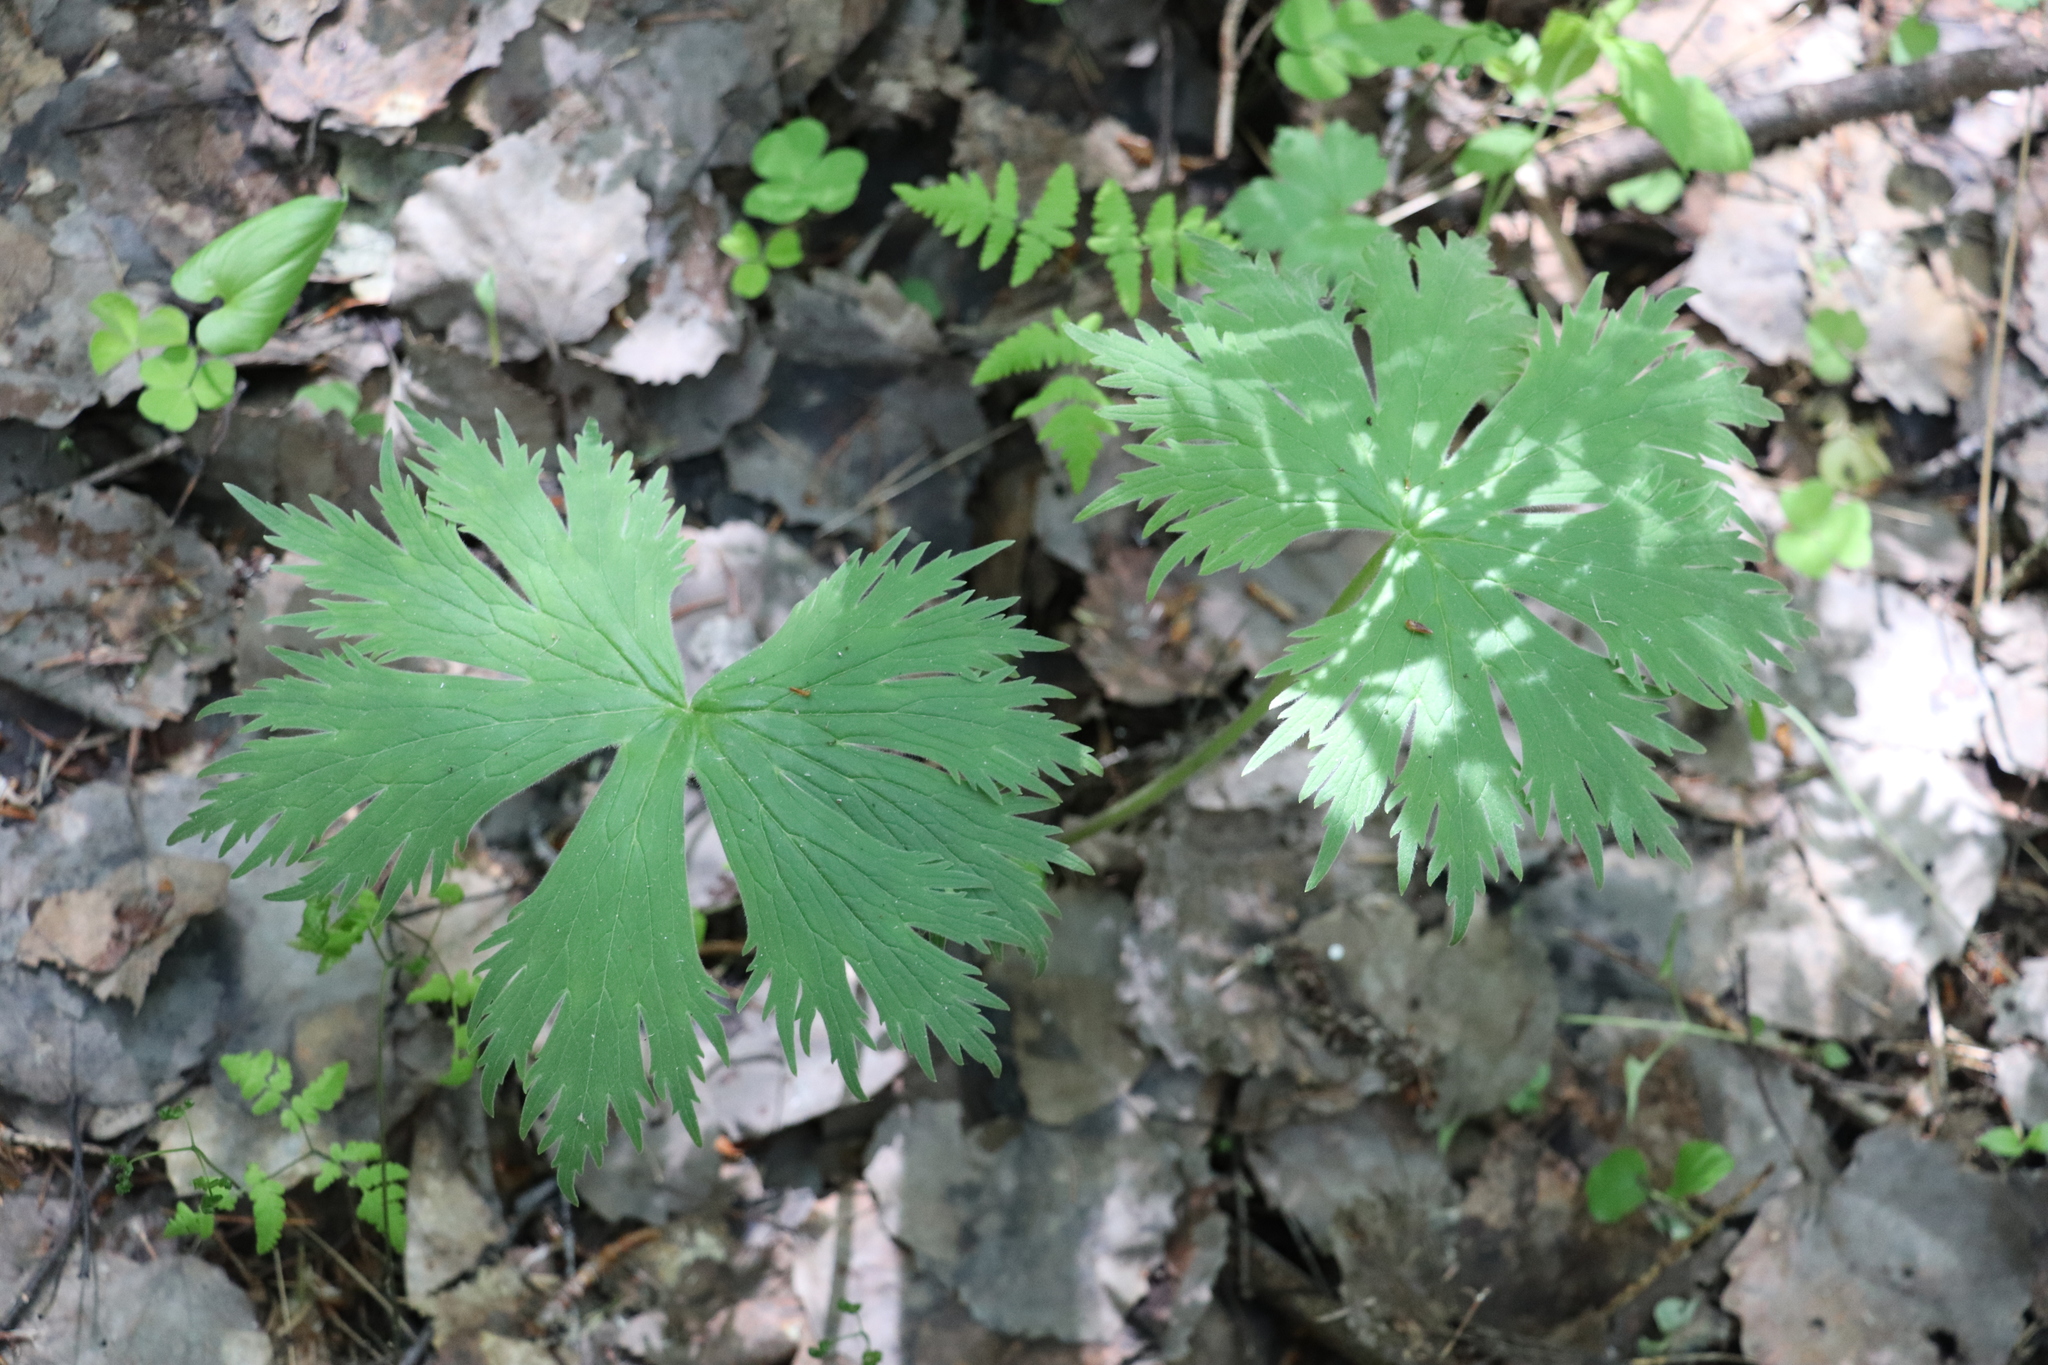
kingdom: Plantae
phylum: Tracheophyta
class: Magnoliopsida
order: Ranunculales
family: Ranunculaceae
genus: Aconitum
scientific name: Aconitum septentrionale
